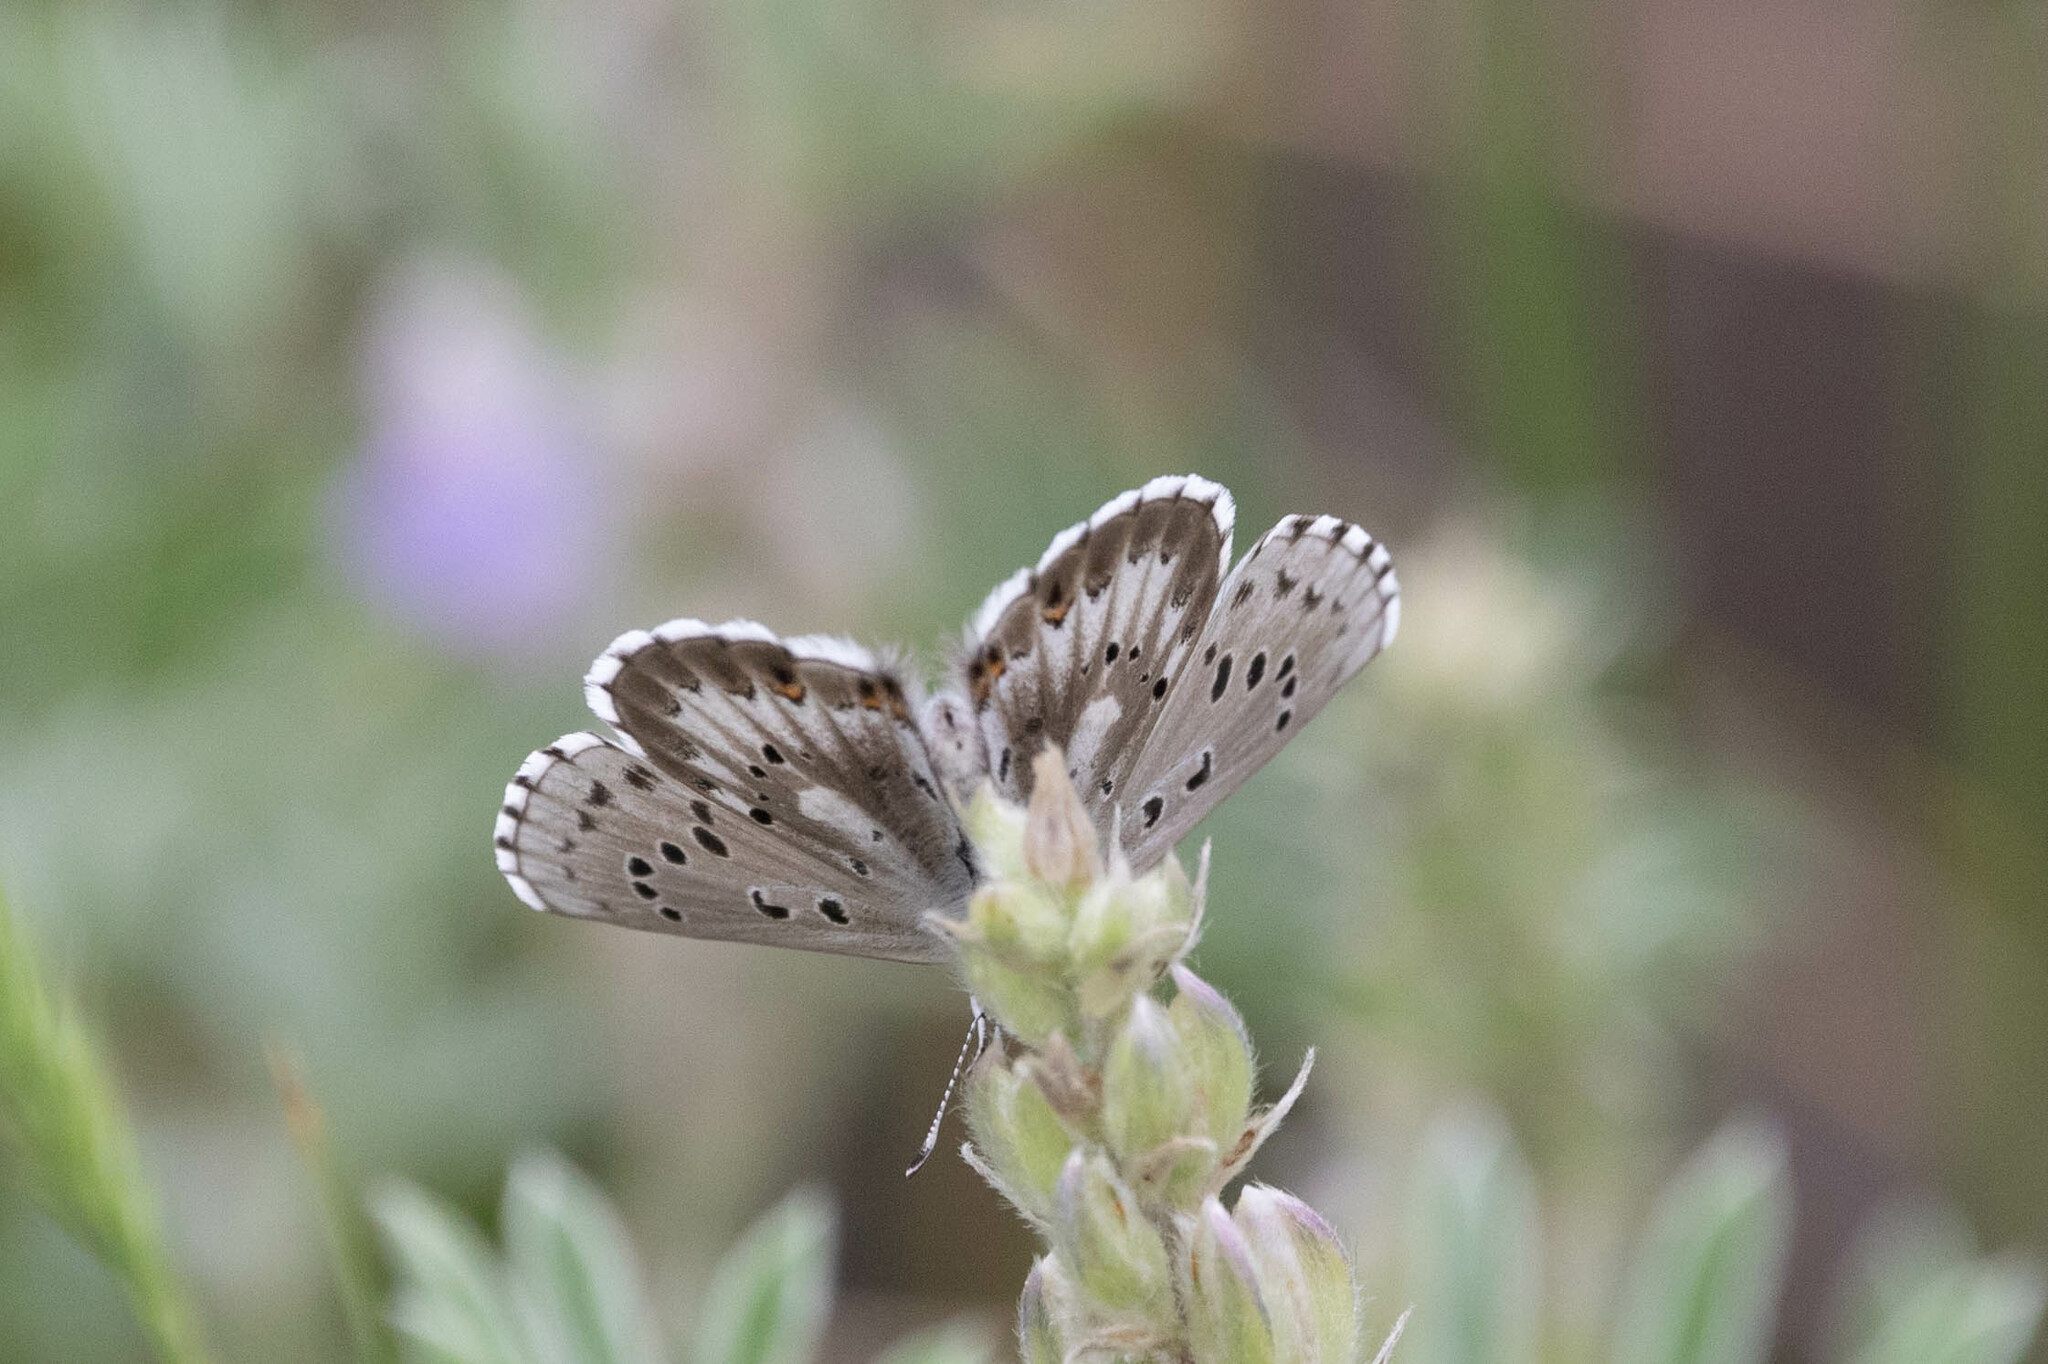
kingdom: Animalia
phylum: Arthropoda
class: Insecta
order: Lepidoptera
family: Lycaenidae
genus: Glaucopsyche
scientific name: Glaucopsyche piasus
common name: Arrowhead blue
